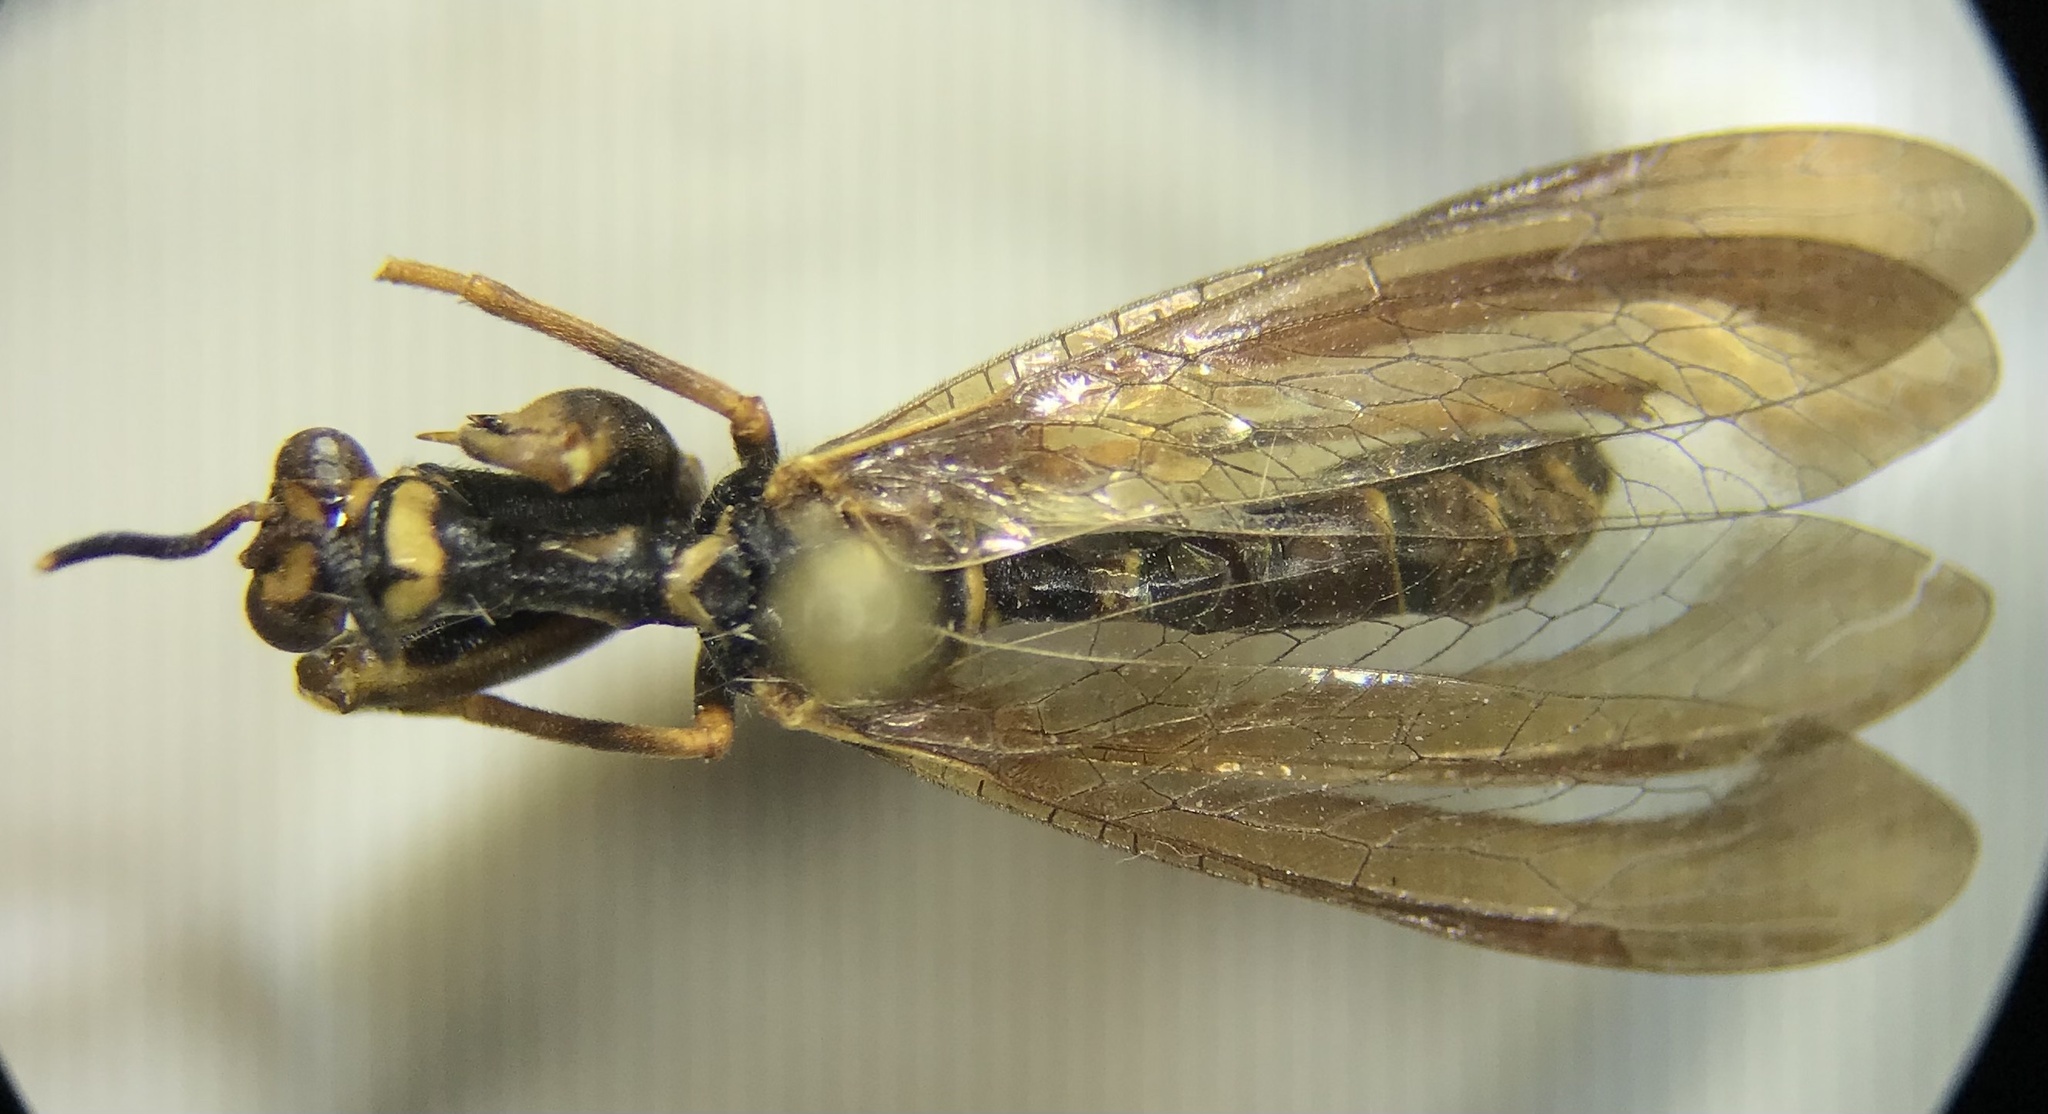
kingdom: Animalia
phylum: Arthropoda
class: Insecta
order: Neuroptera
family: Mantispidae
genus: Climaciella
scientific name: Climaciella brunnea
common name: Brown wasp mantidfly
